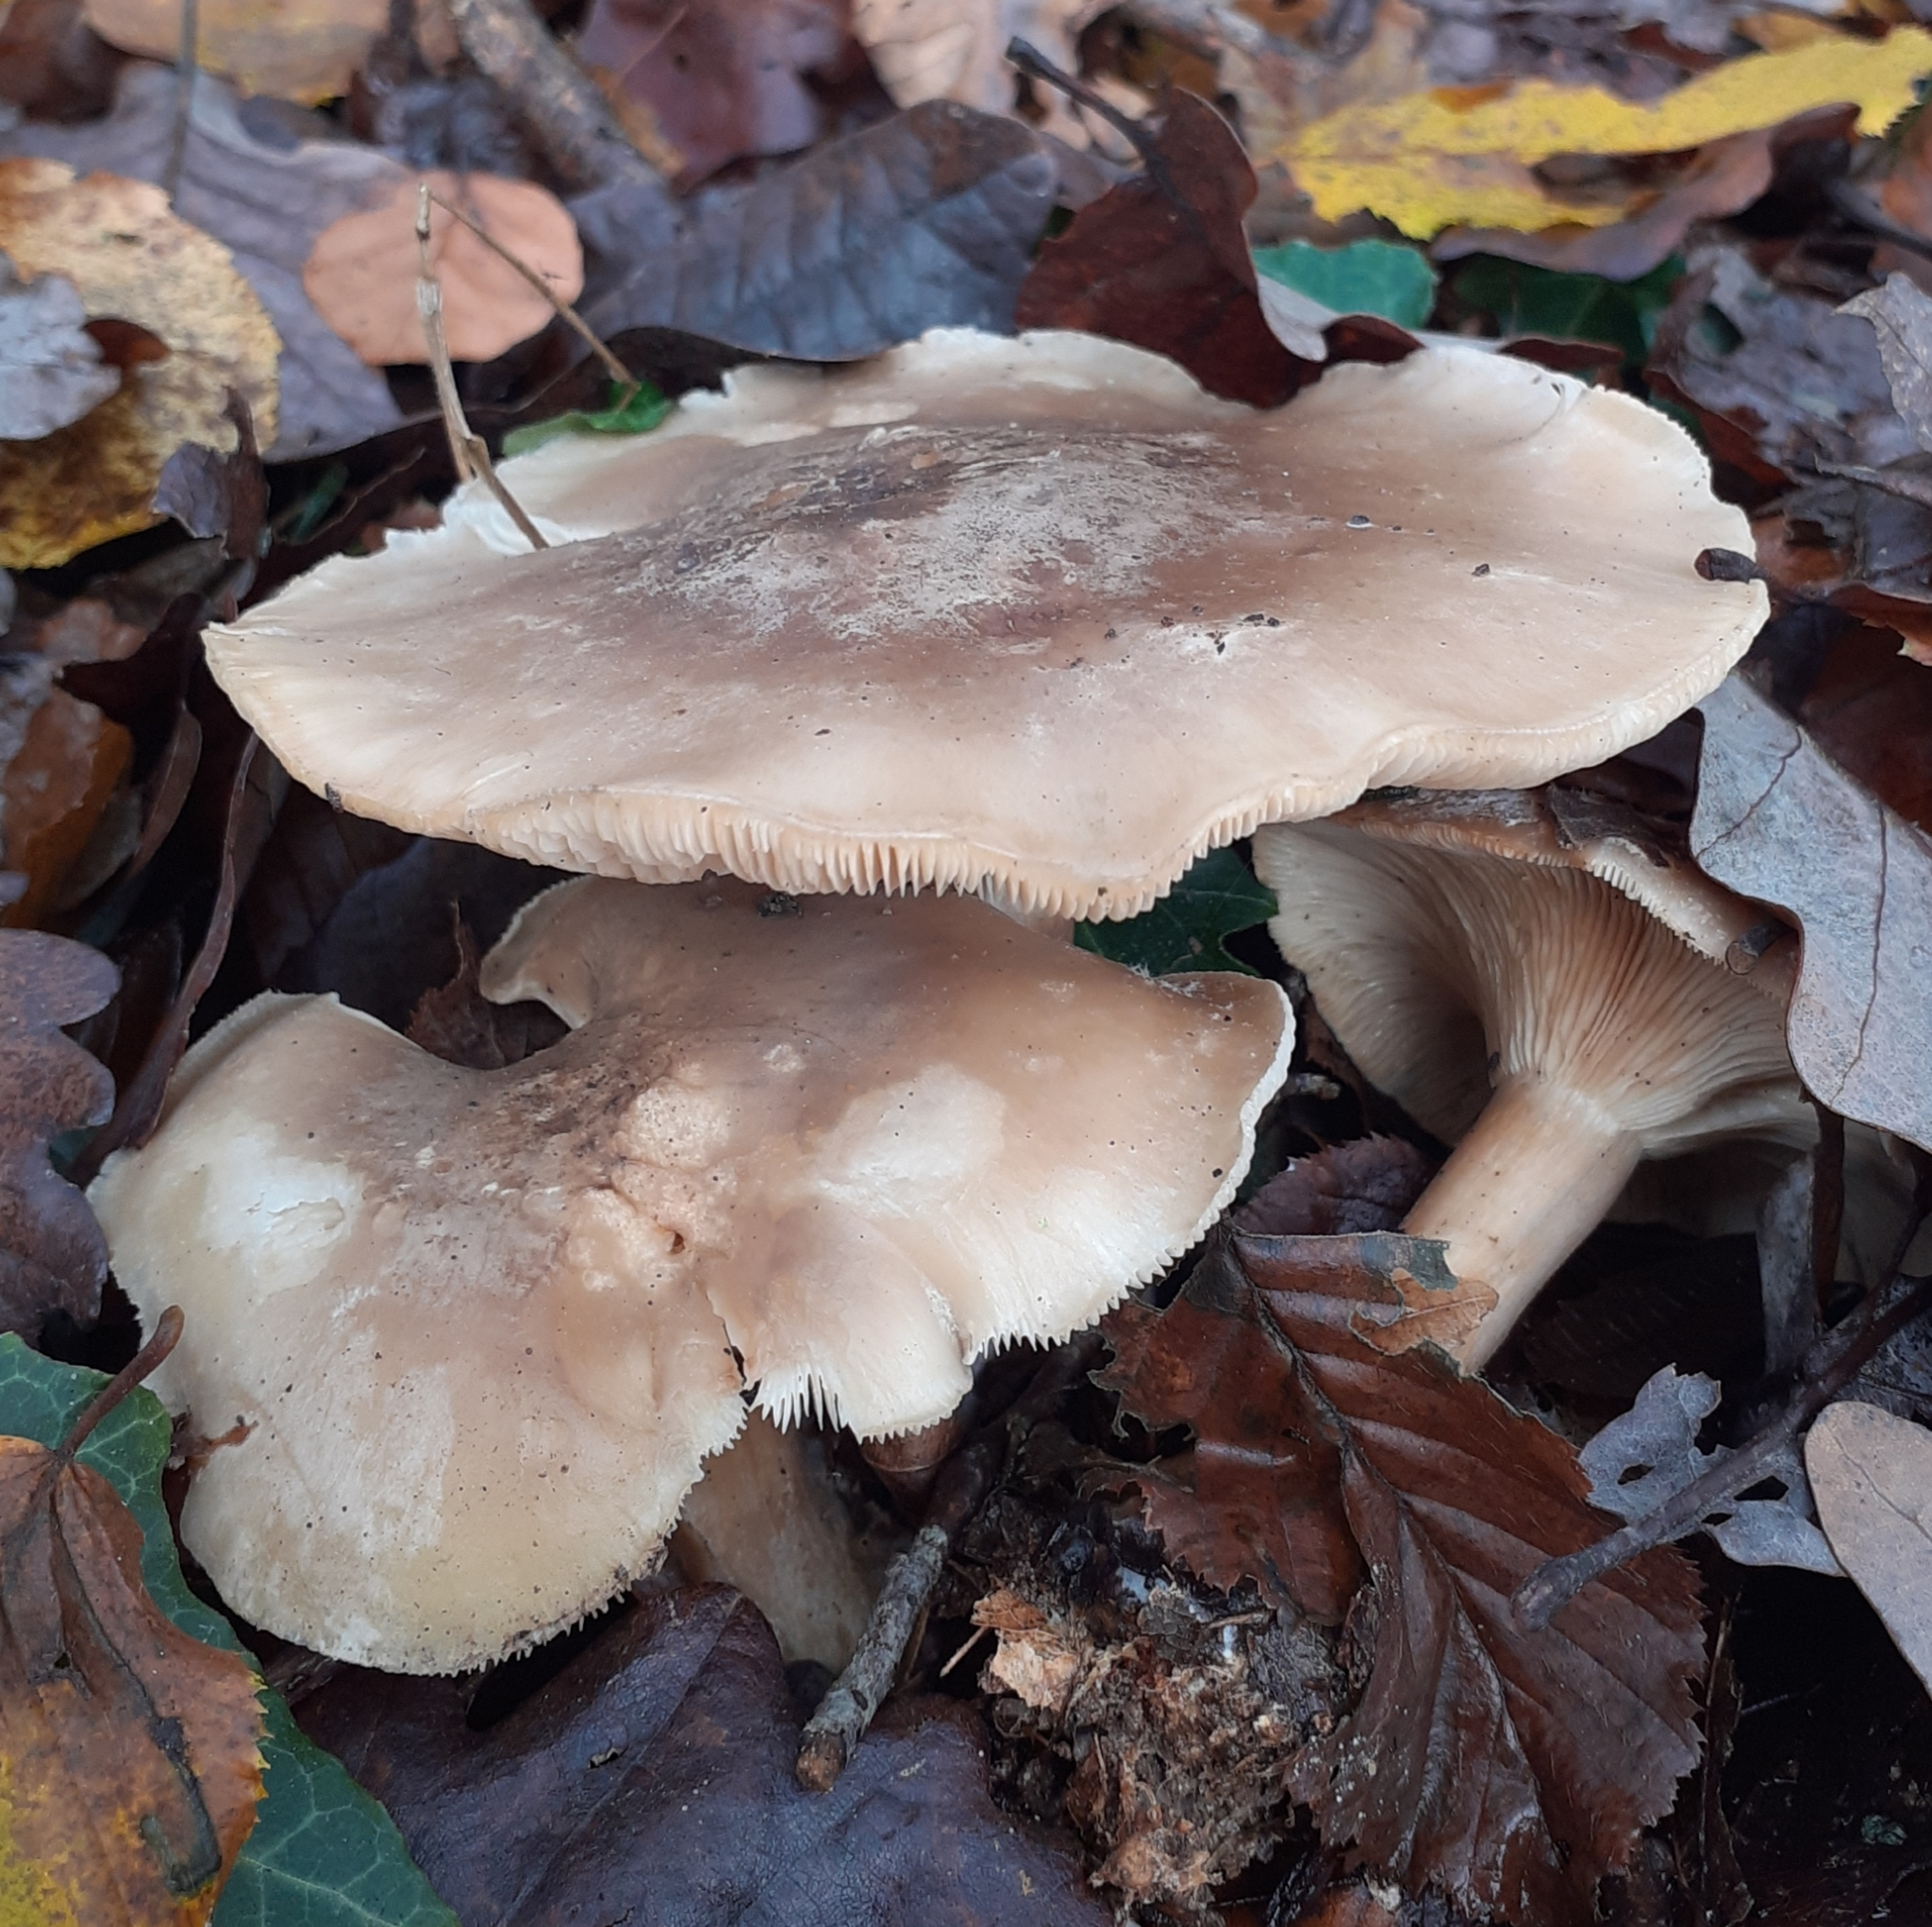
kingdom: Fungi
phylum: Basidiomycota
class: Agaricomycetes
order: Agaricales
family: Tricholomataceae
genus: Clitocybe
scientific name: Clitocybe nebularis
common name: Clouded agaric
